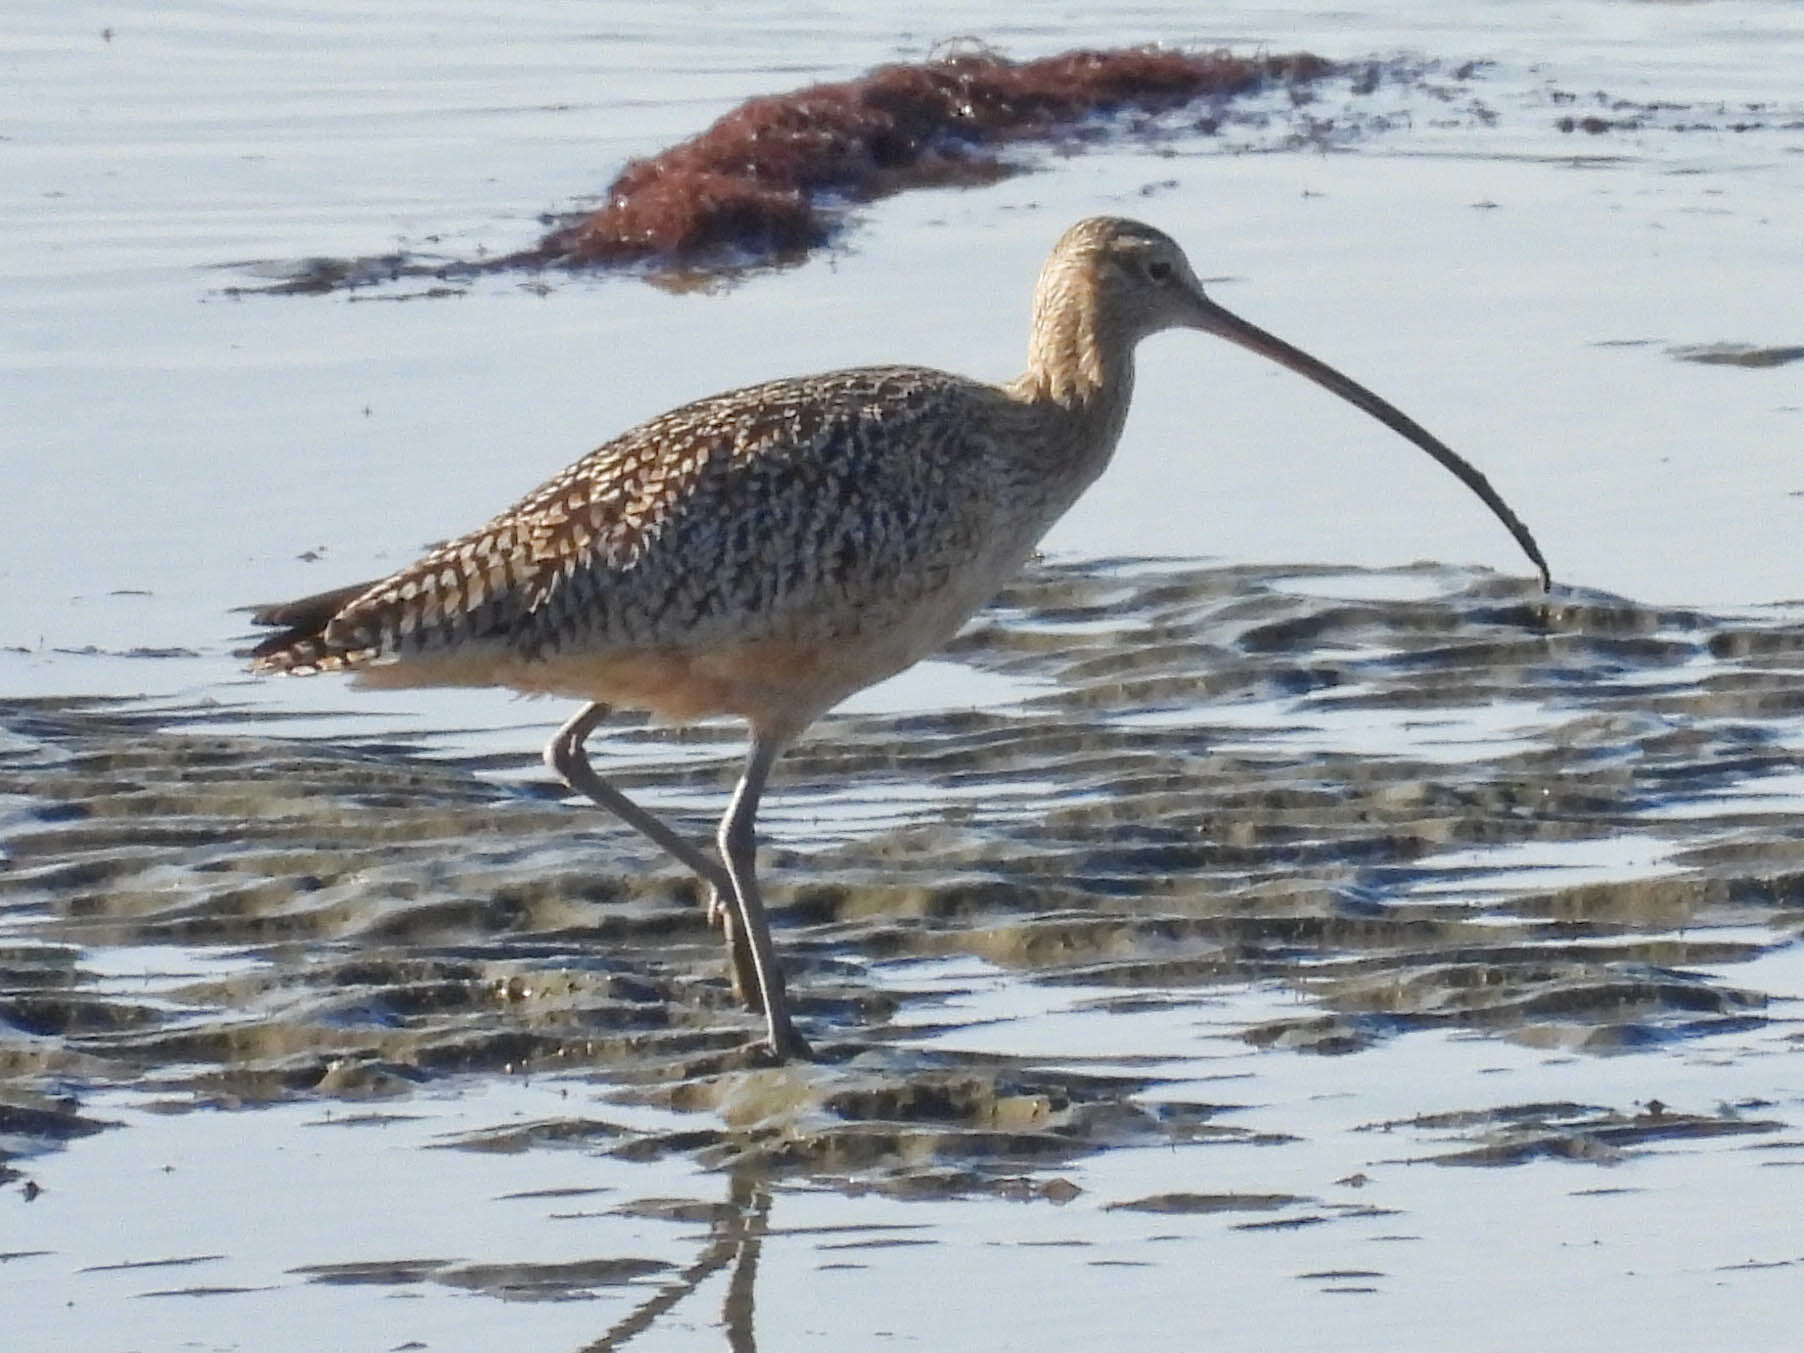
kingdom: Animalia
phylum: Chordata
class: Aves
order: Charadriiformes
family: Scolopacidae
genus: Numenius
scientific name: Numenius americanus
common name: Long-billed curlew
